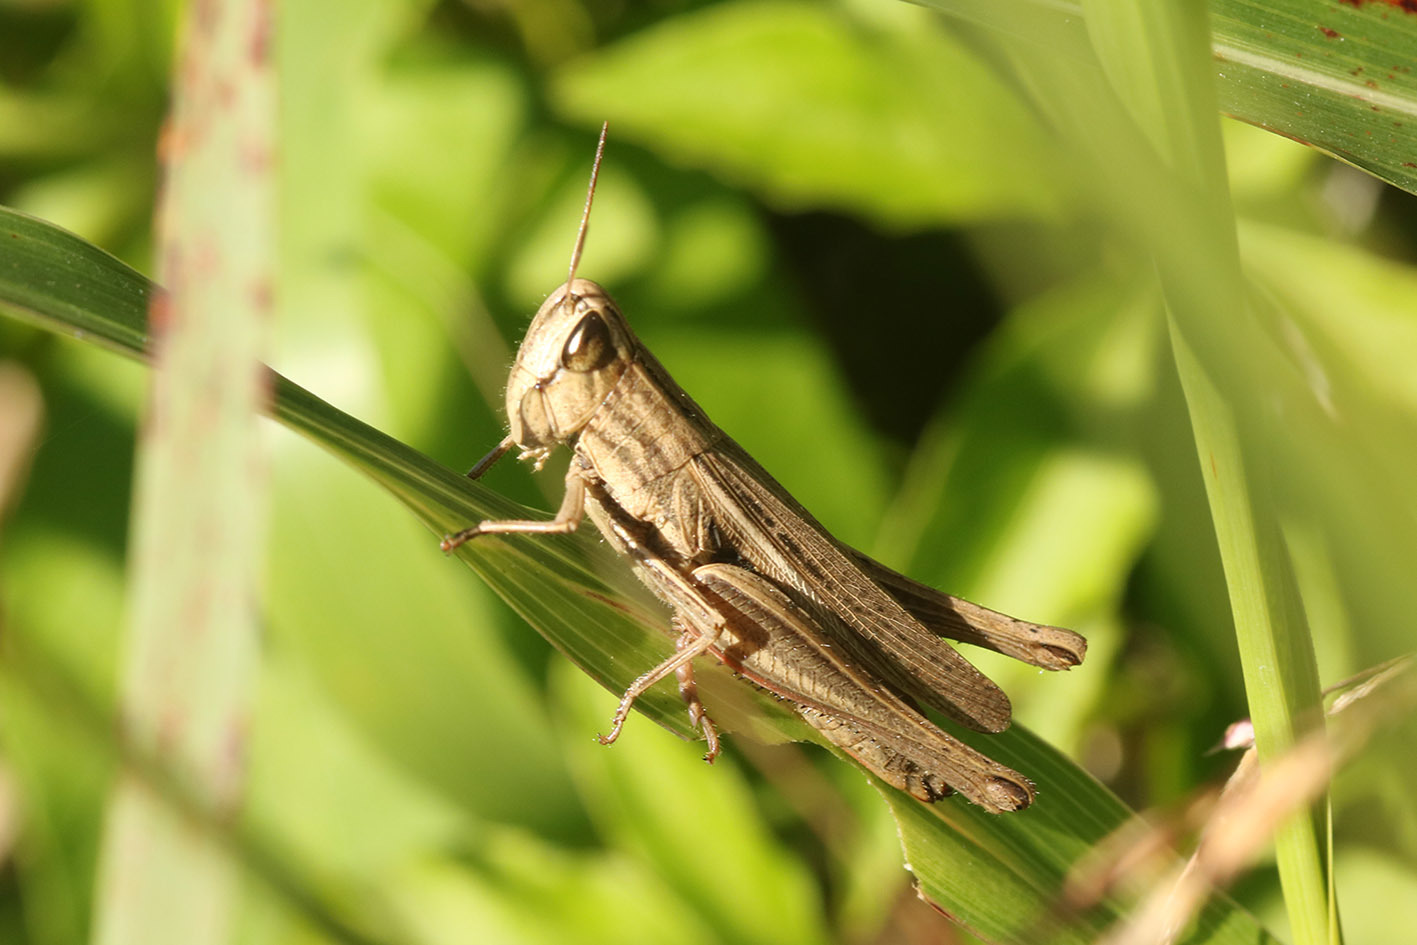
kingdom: Animalia
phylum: Arthropoda
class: Insecta
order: Orthoptera
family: Acrididae
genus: Amblytropidia
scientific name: Amblytropidia australis
